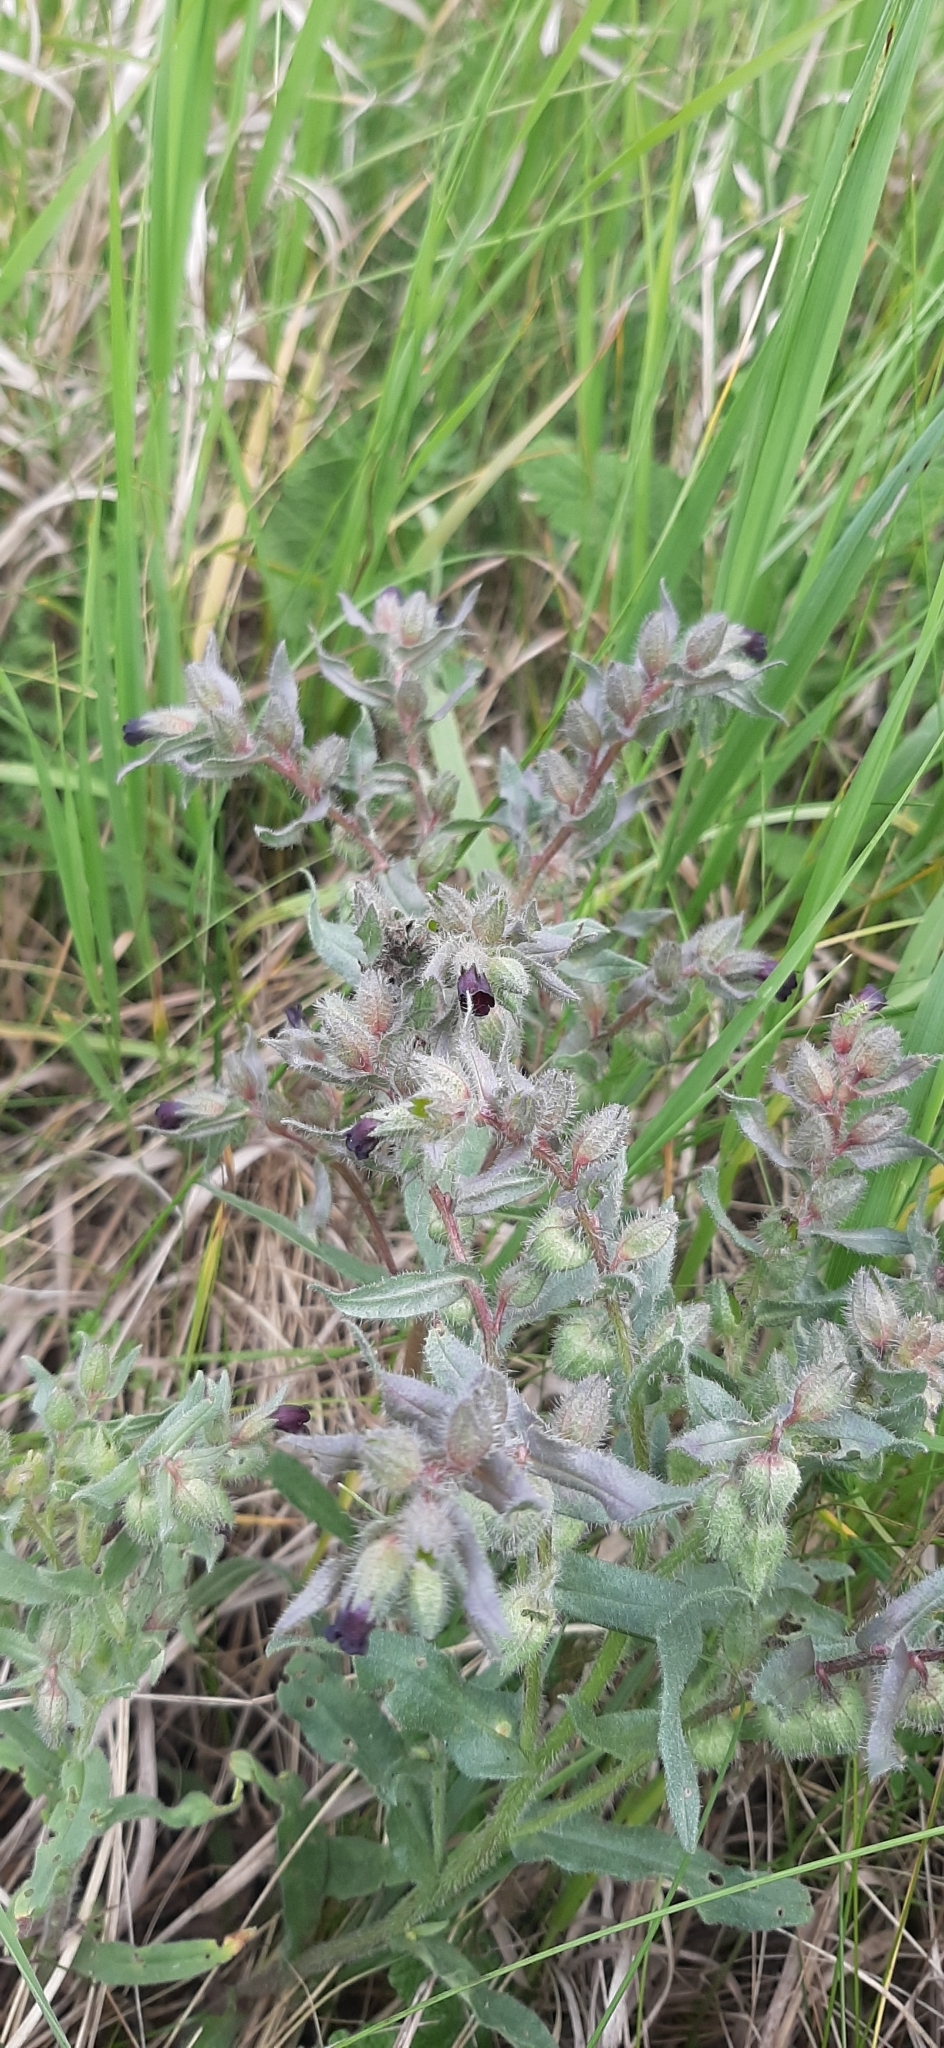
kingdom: Plantae
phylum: Tracheophyta
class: Magnoliopsida
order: Boraginales
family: Boraginaceae
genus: Nonea
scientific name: Nonea pulla
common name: Brown nonea
